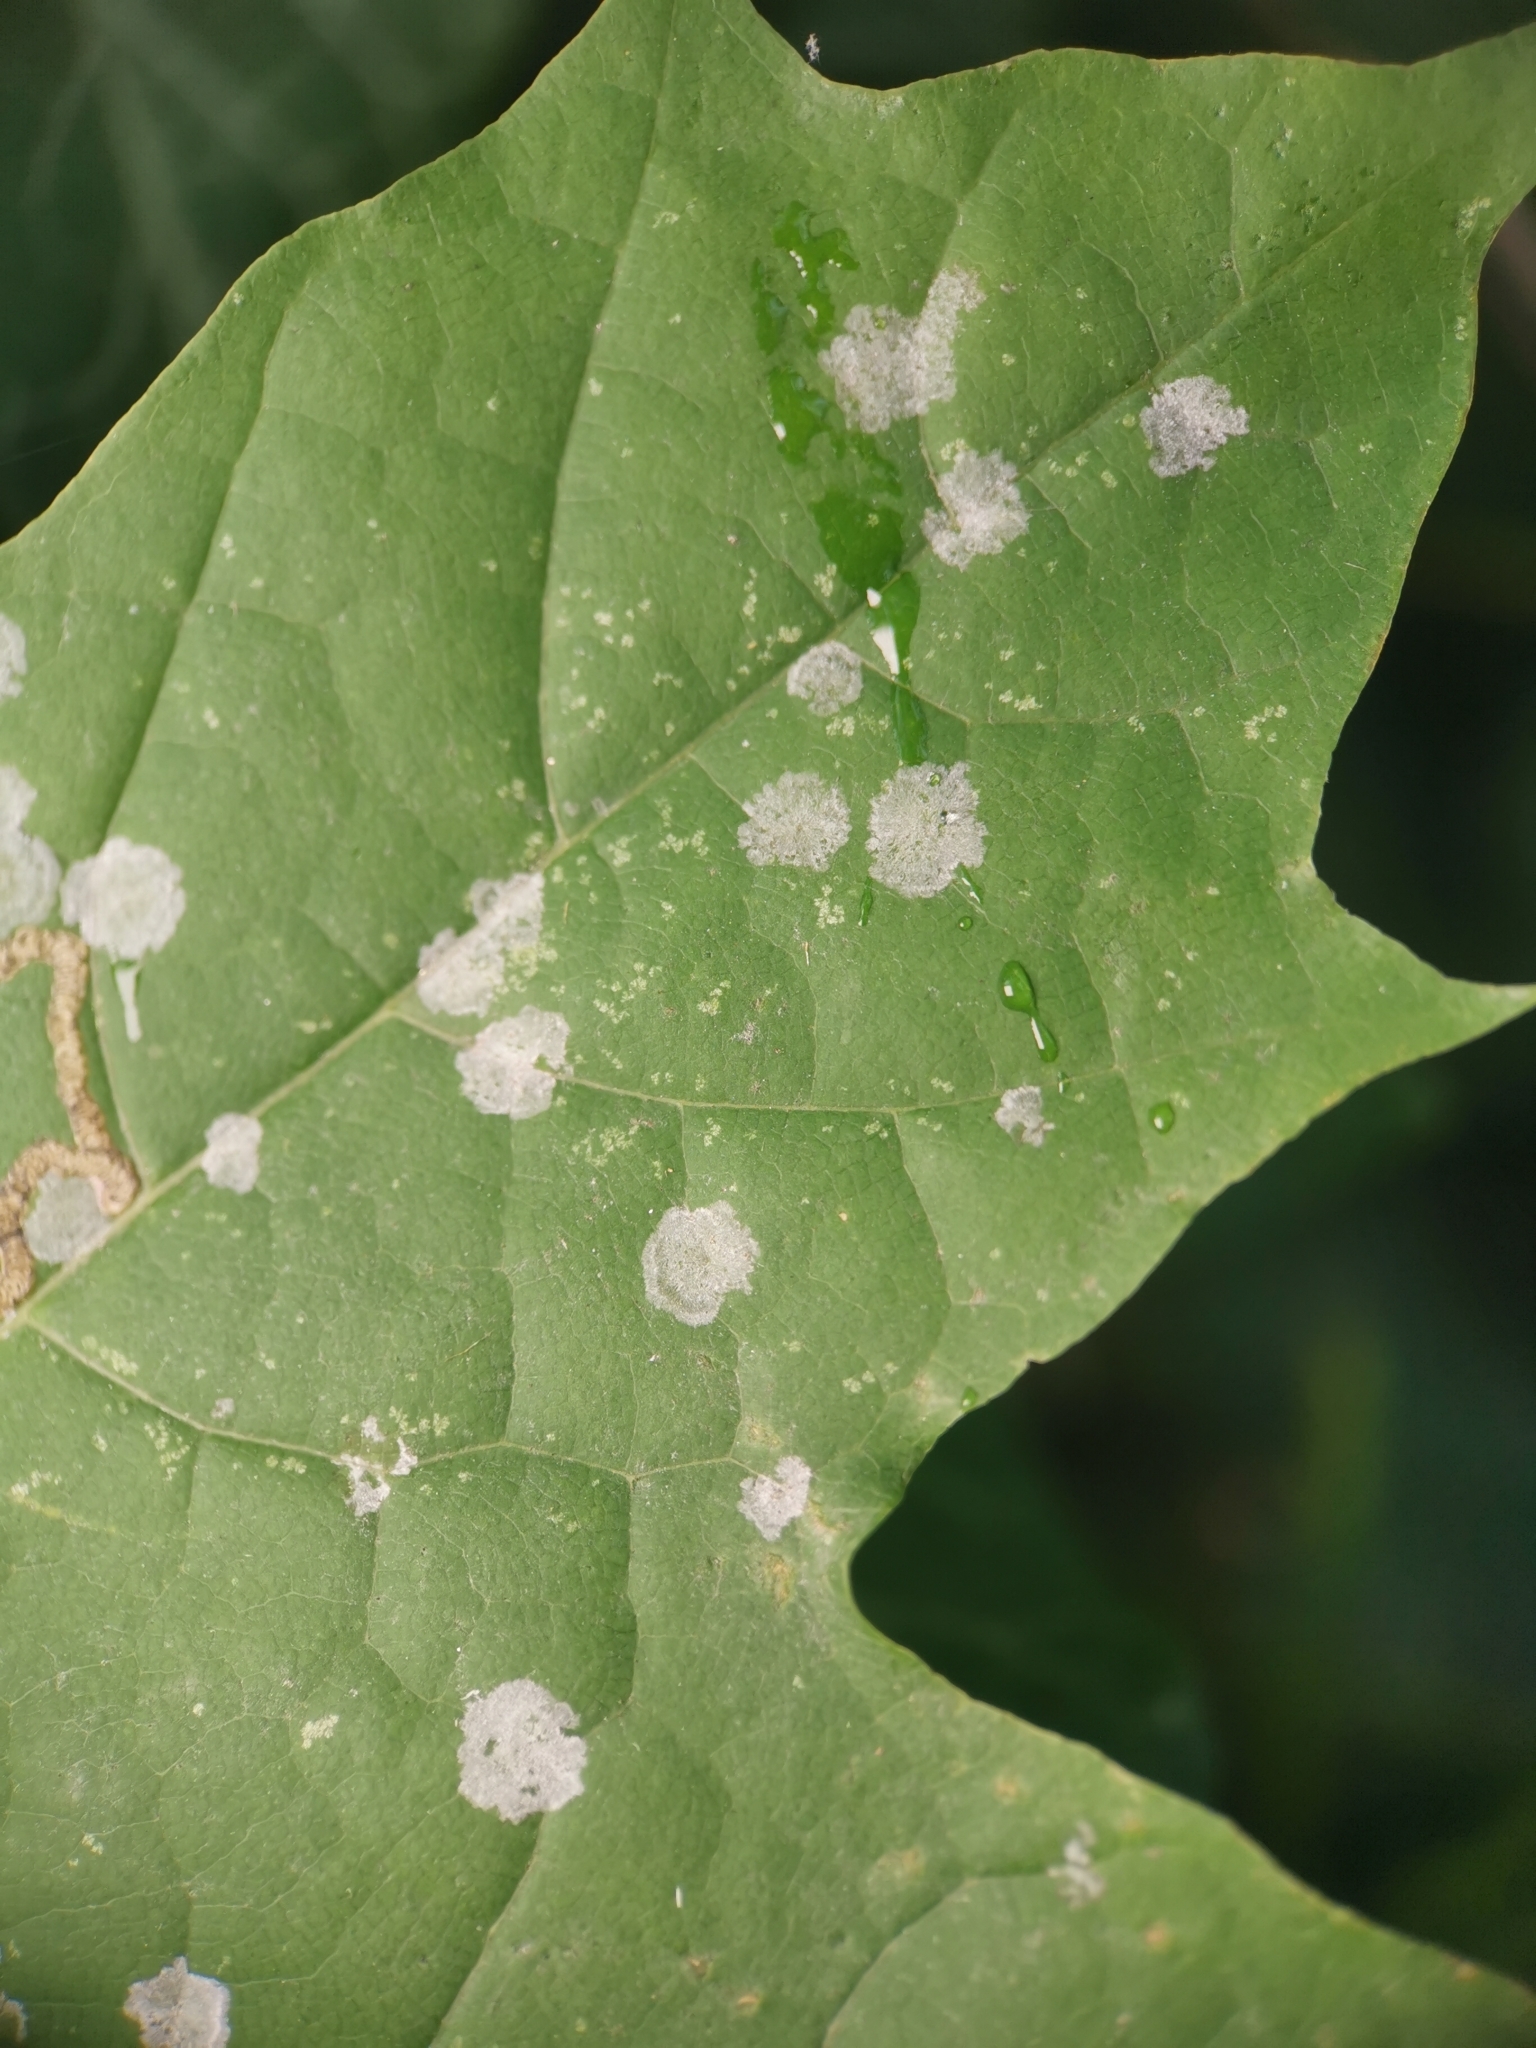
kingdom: Fungi
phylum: Ascomycota
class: Leotiomycetes
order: Helotiales
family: Erysiphaceae
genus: Sawadaea
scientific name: Sawadaea tulasnei
